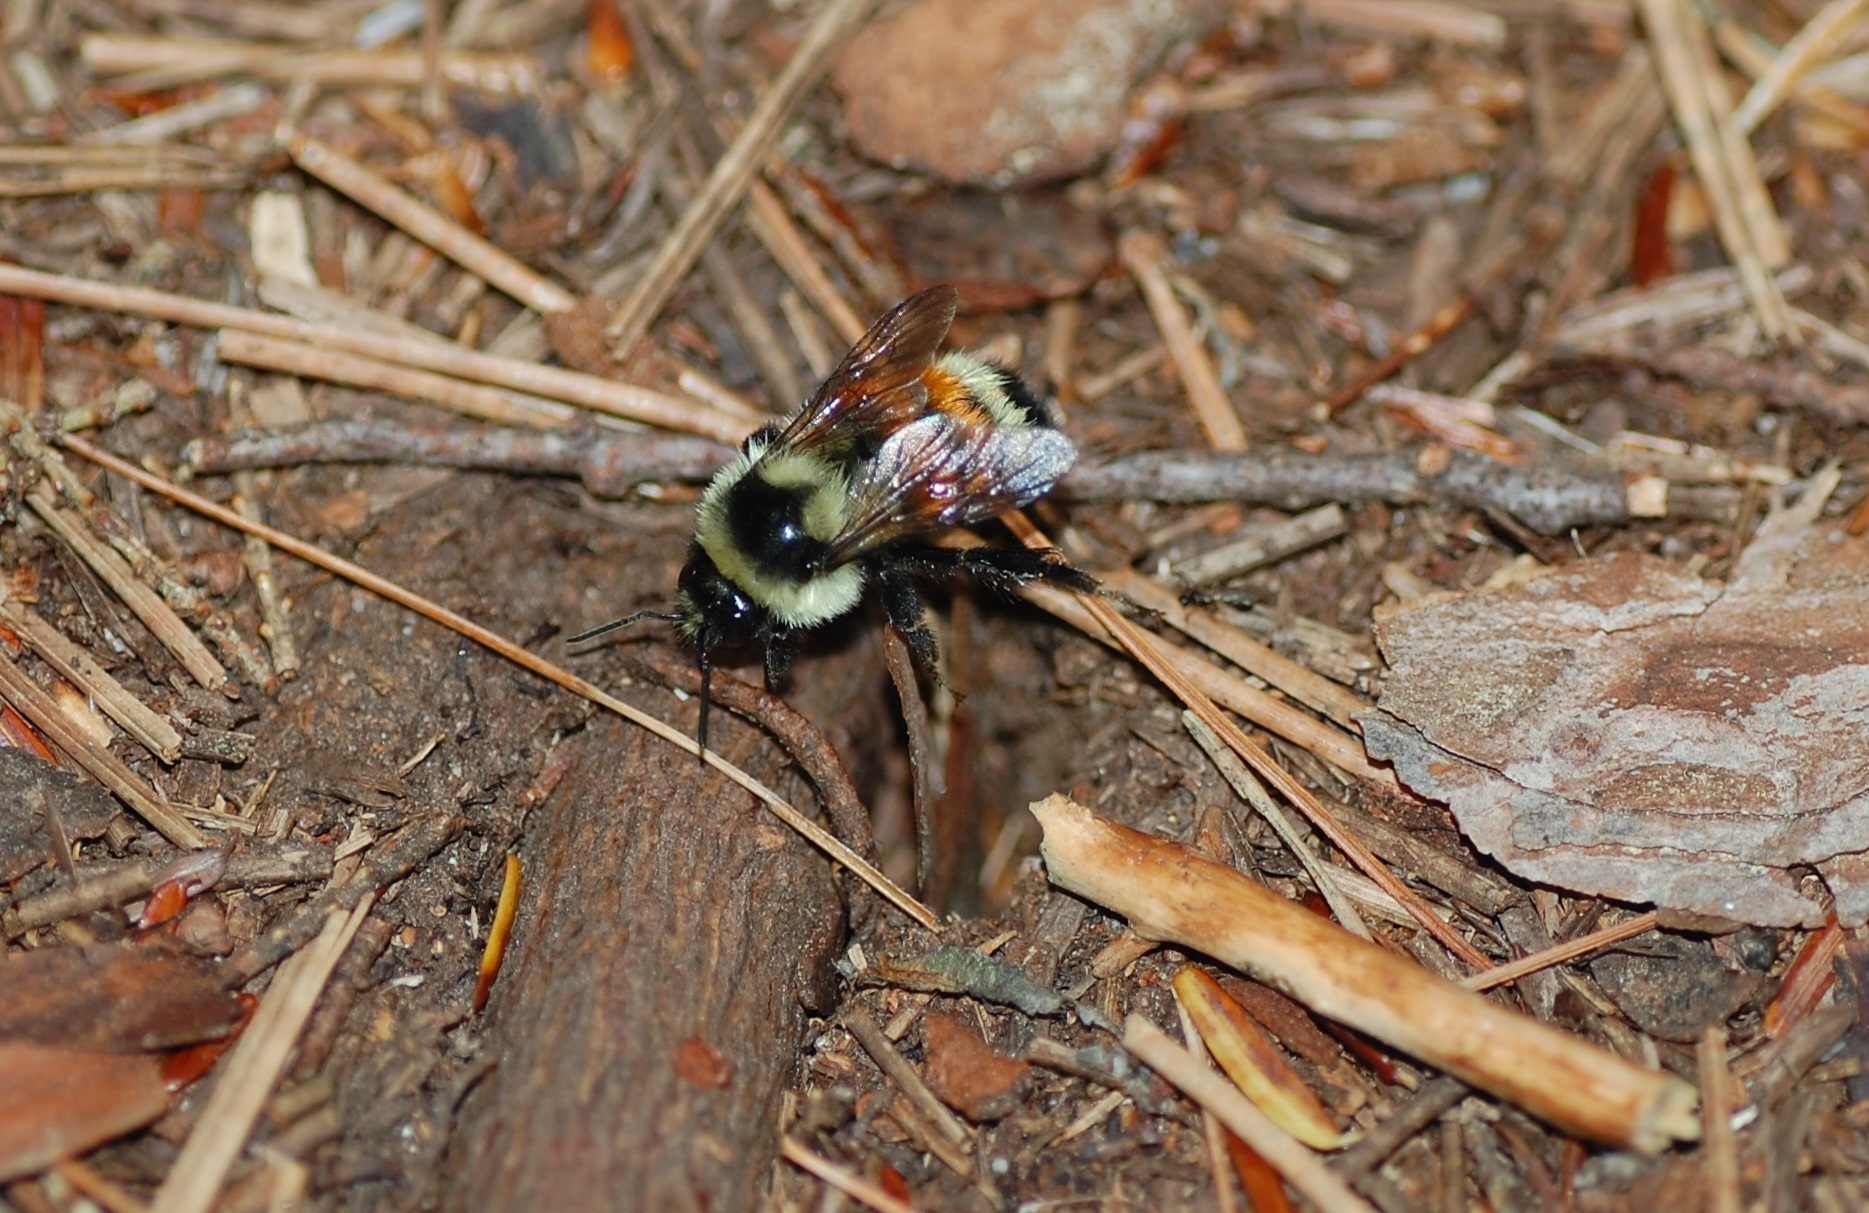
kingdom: Animalia
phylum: Arthropoda
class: Insecta
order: Hymenoptera
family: Apidae
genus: Bombus
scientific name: Bombus ternarius
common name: Tri-colored bumble bee
